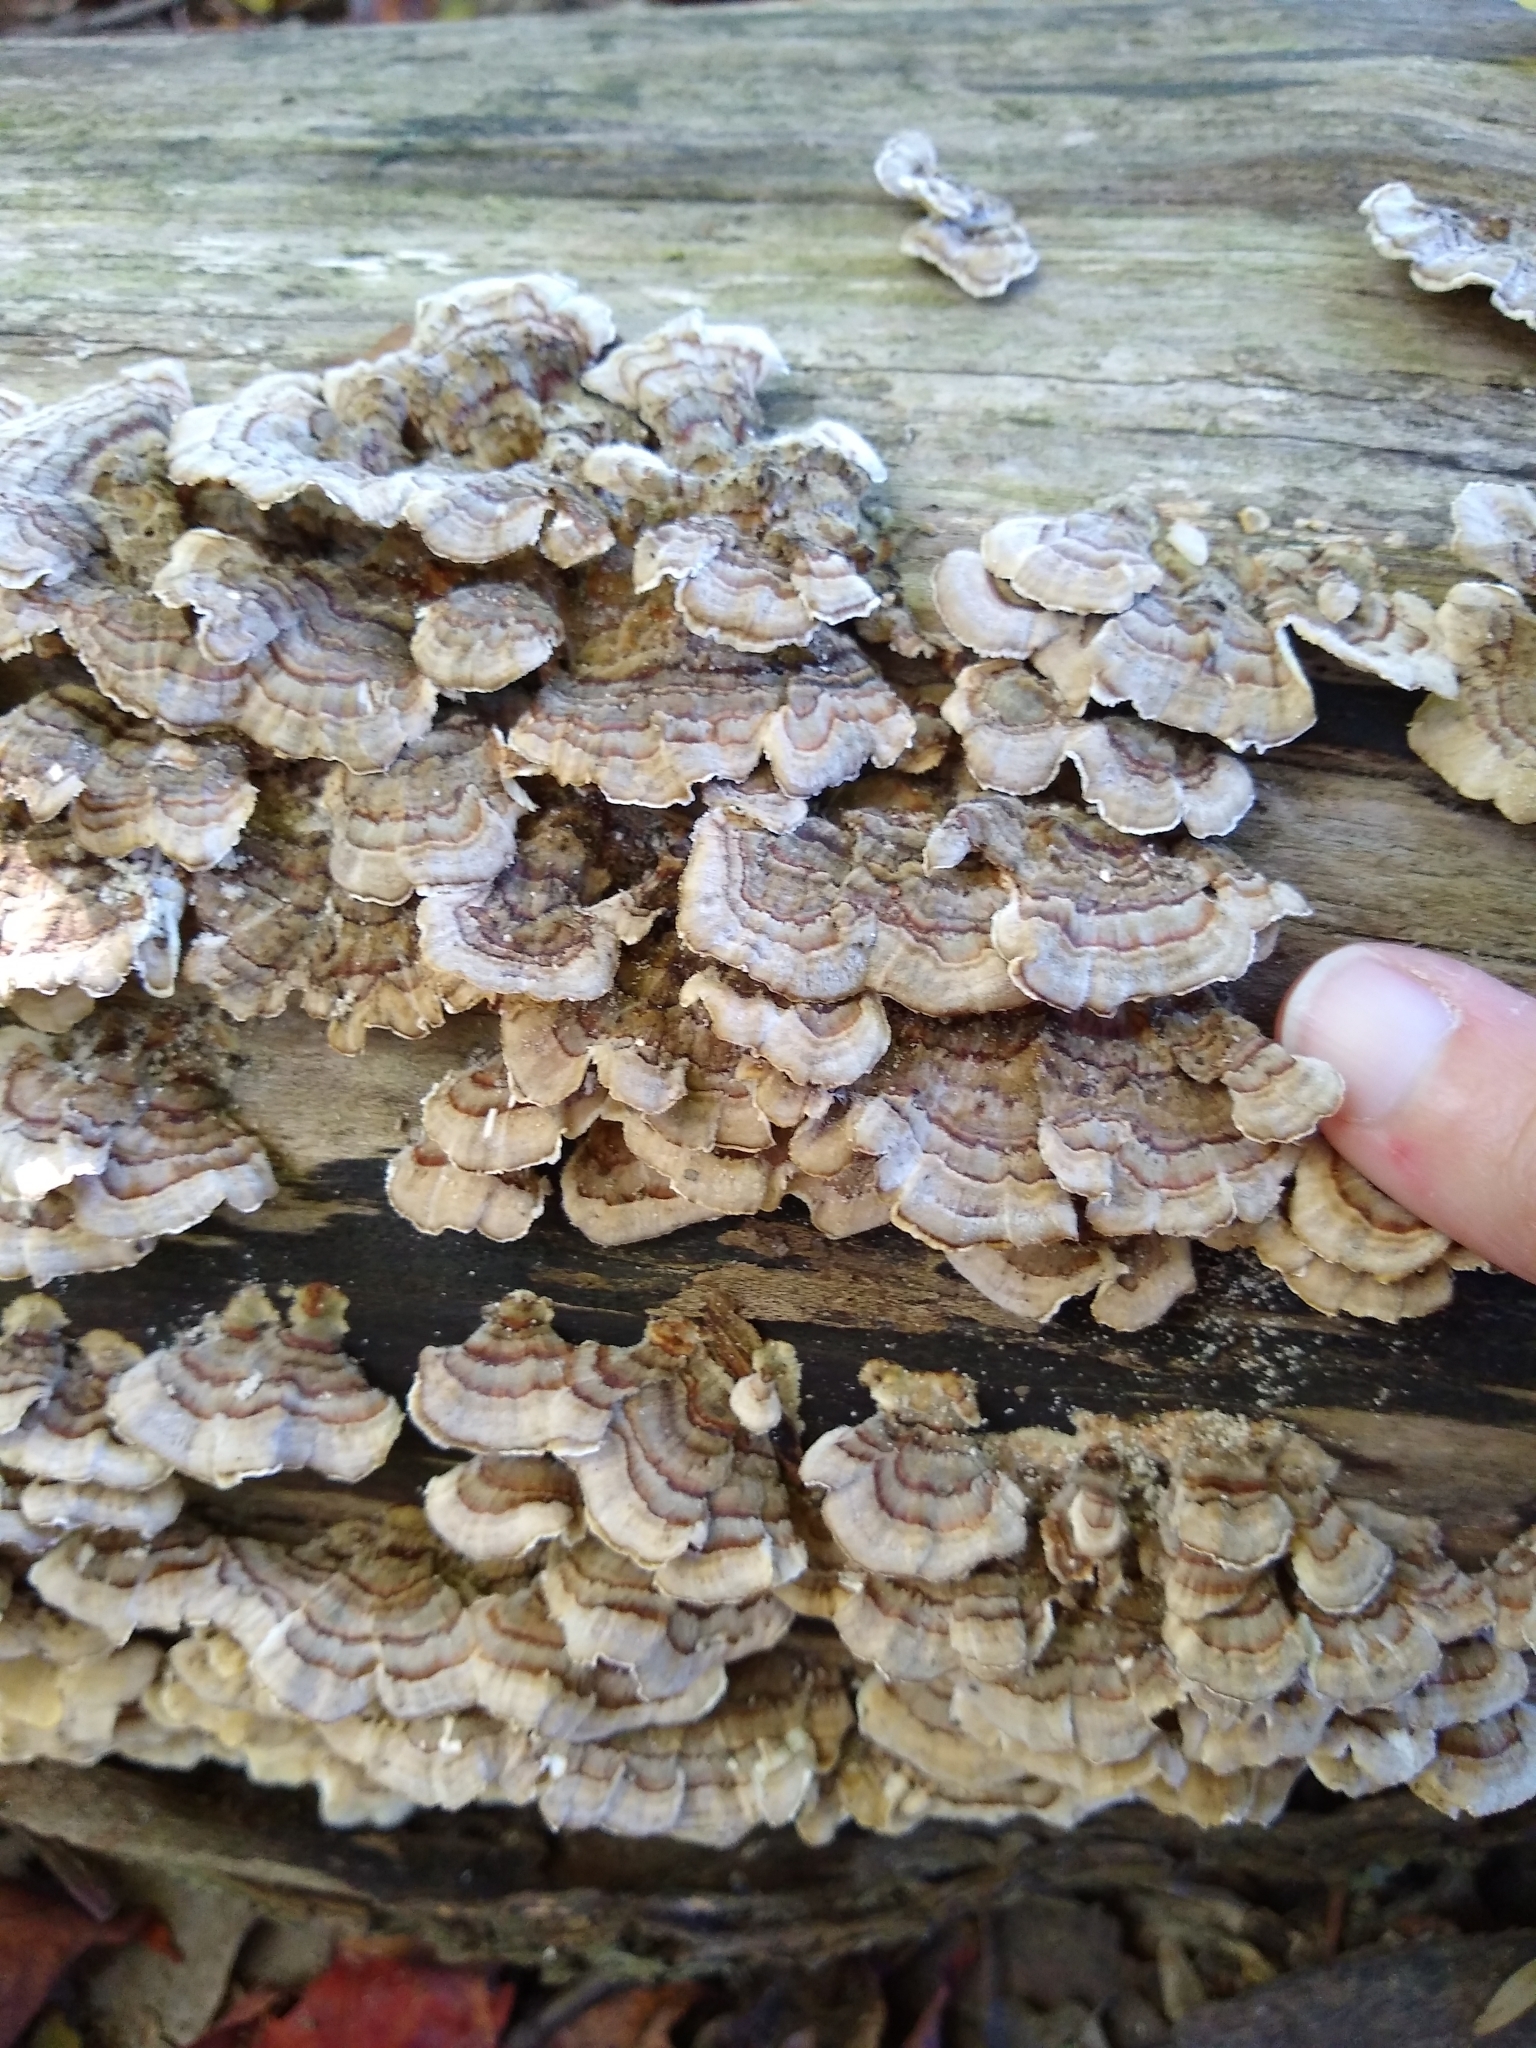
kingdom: Fungi
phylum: Basidiomycota
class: Agaricomycetes
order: Polyporales
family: Polyporaceae
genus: Trametes
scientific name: Trametes versicolor
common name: Turkeytail
